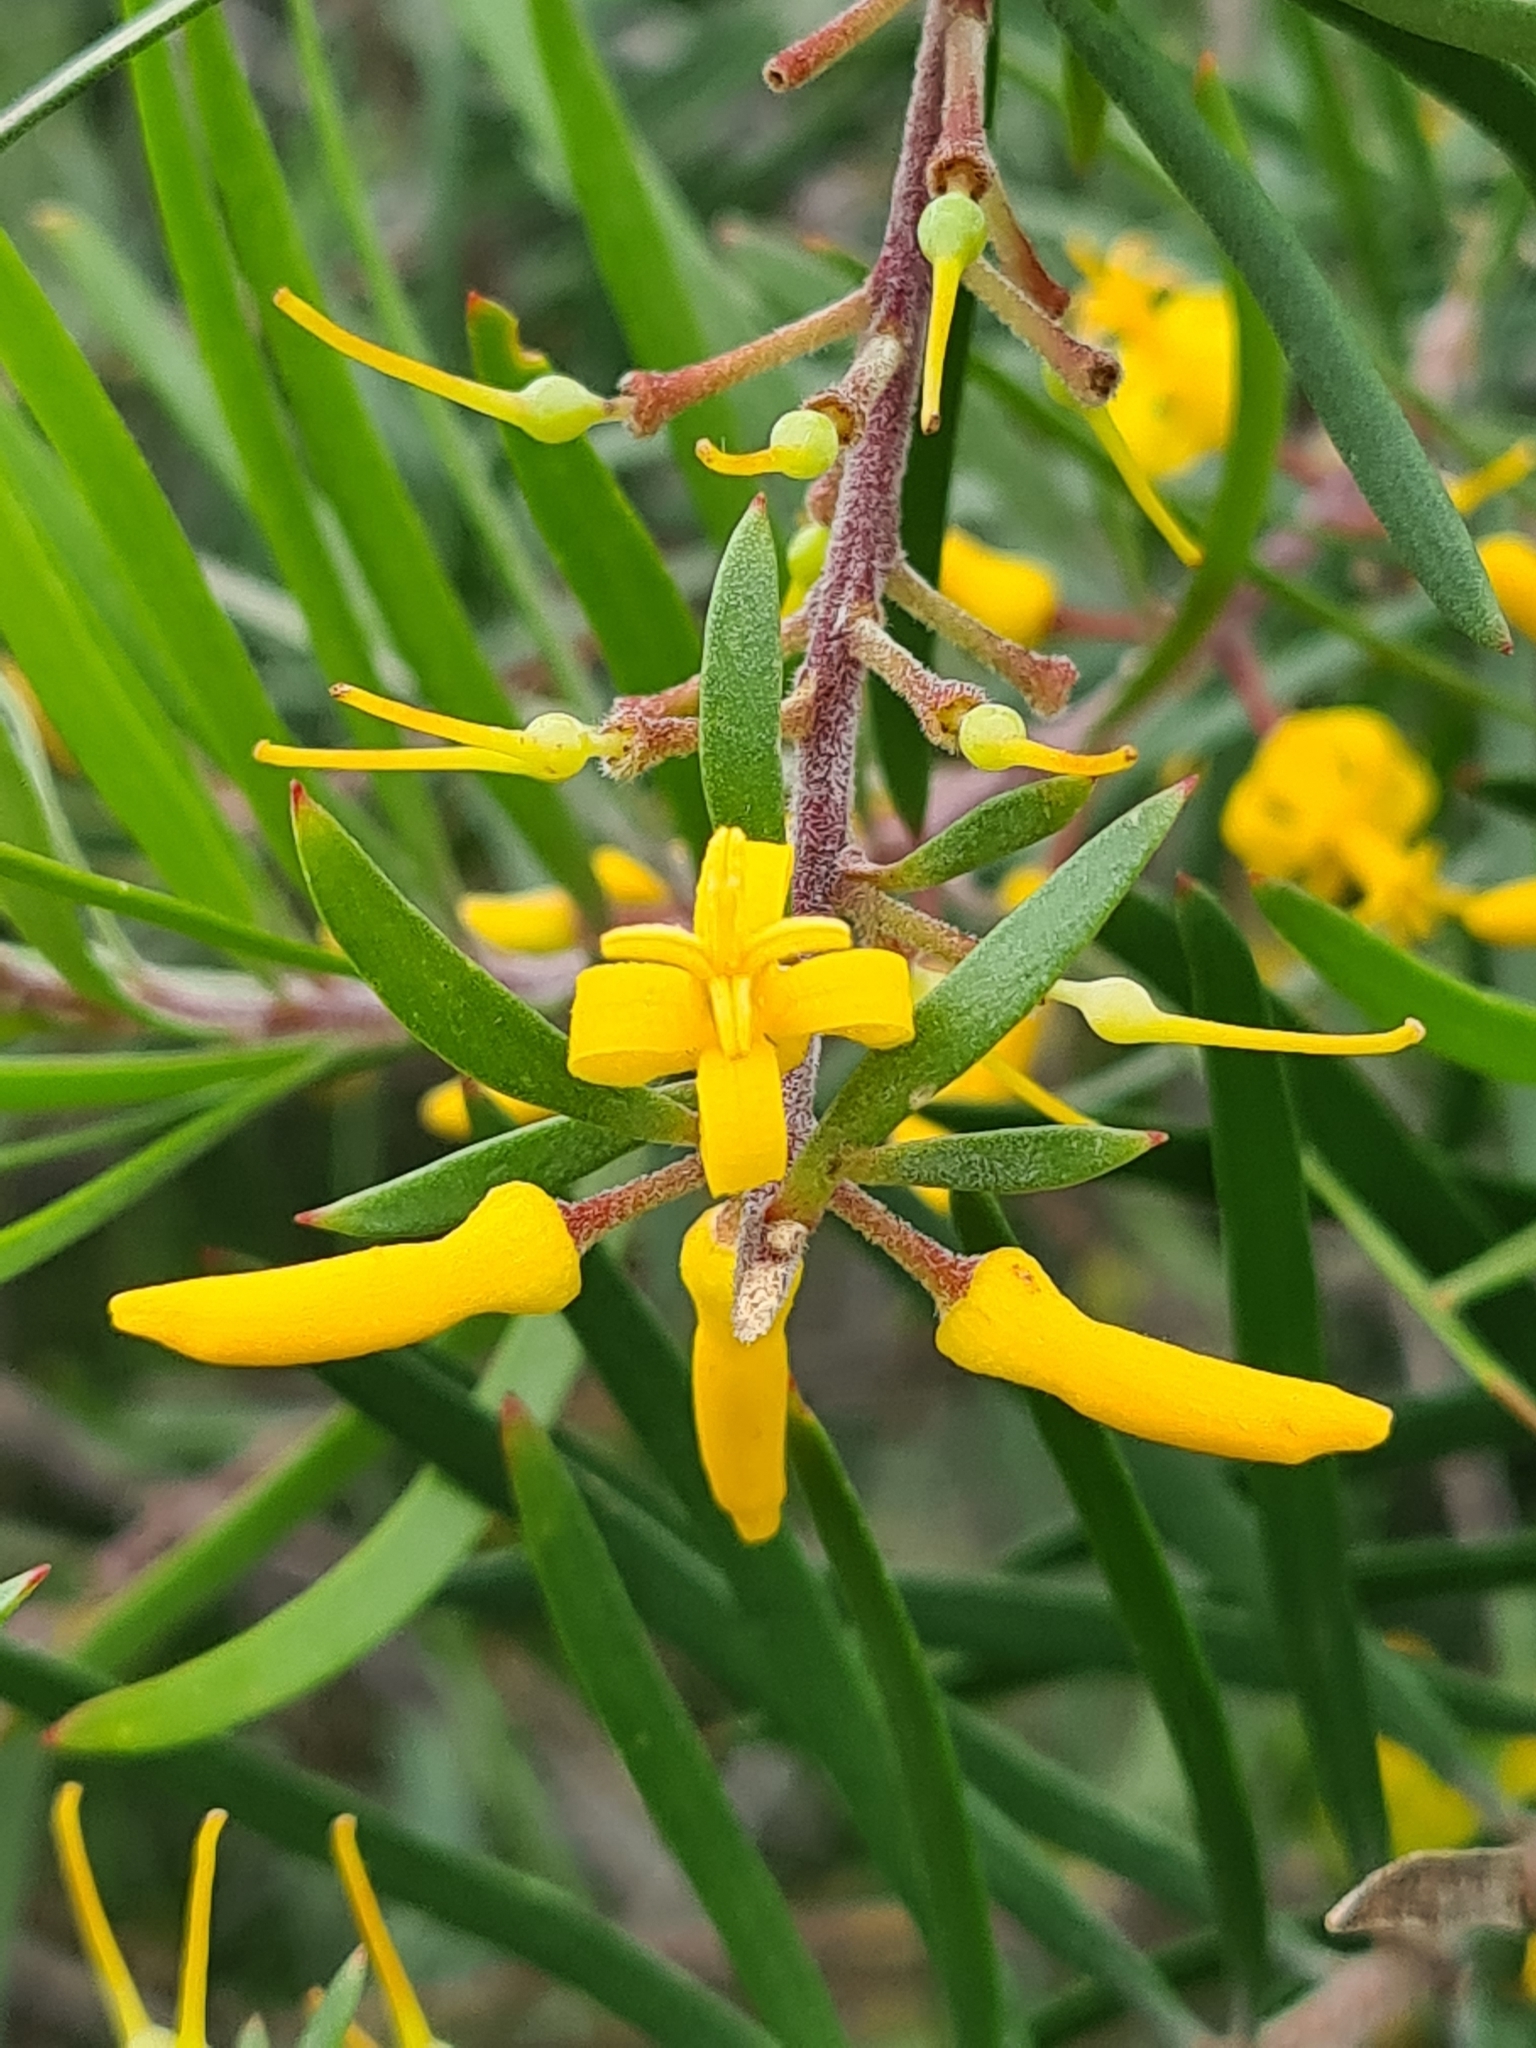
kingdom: Plantae
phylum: Tracheophyta
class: Magnoliopsida
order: Proteales
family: Proteaceae
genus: Persoonia
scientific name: Persoonia linearis
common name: Narrow-leaf geebung
